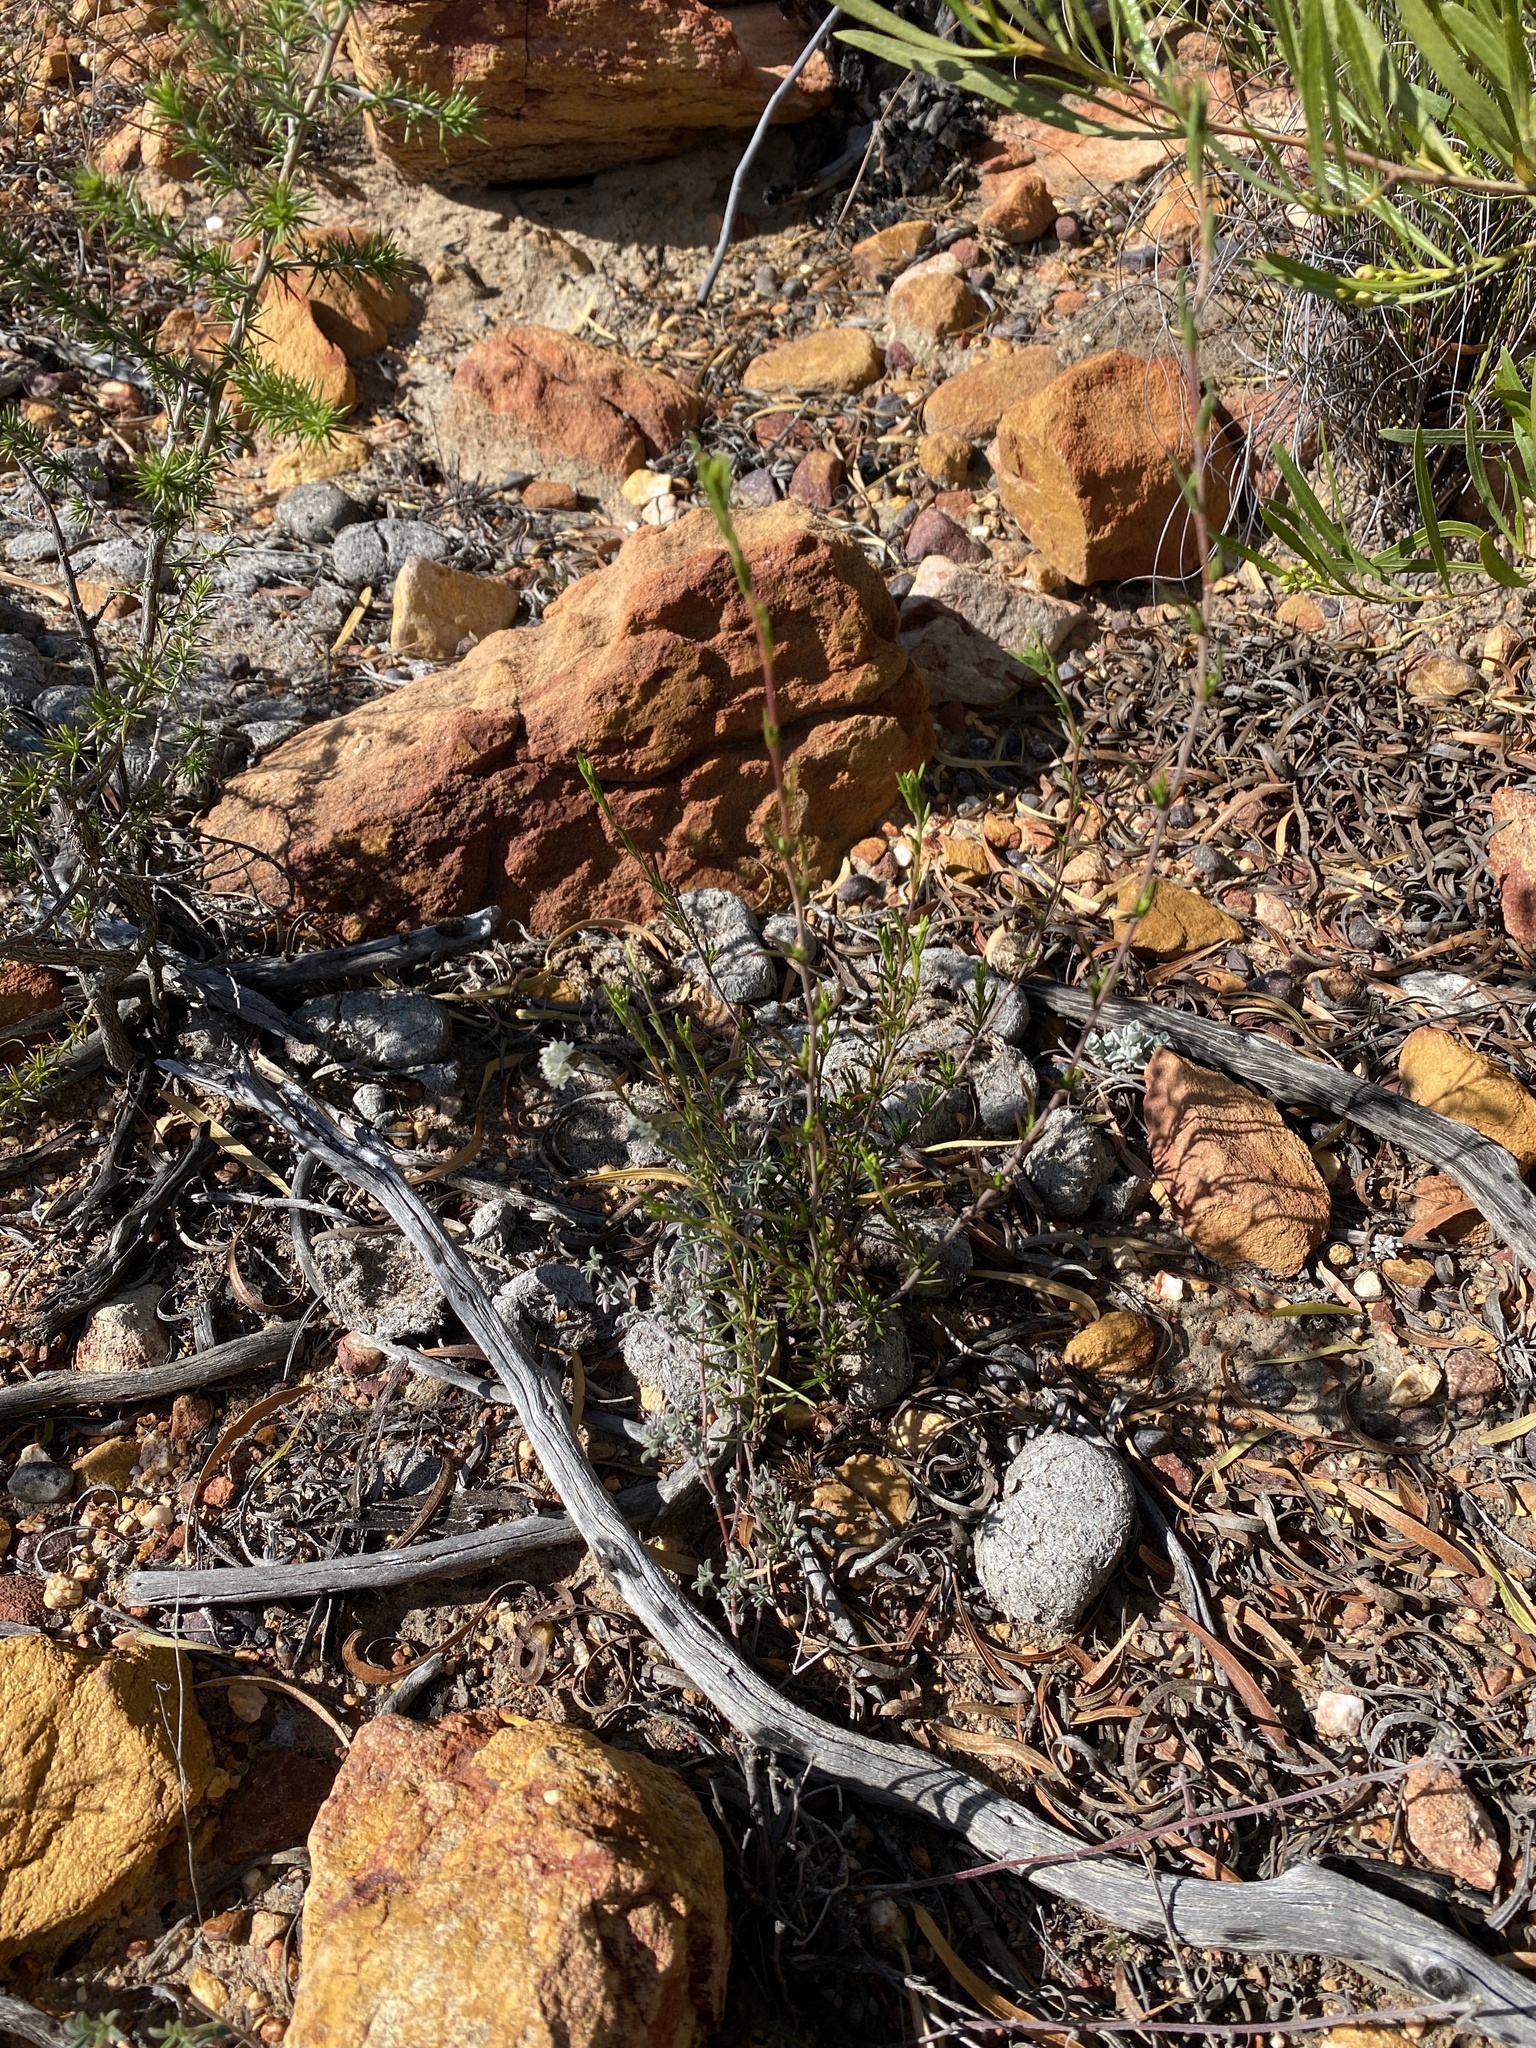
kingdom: Plantae
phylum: Tracheophyta
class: Magnoliopsida
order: Lamiales
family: Scrophulariaceae
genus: Phyllopodium
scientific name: Phyllopodium elegans
